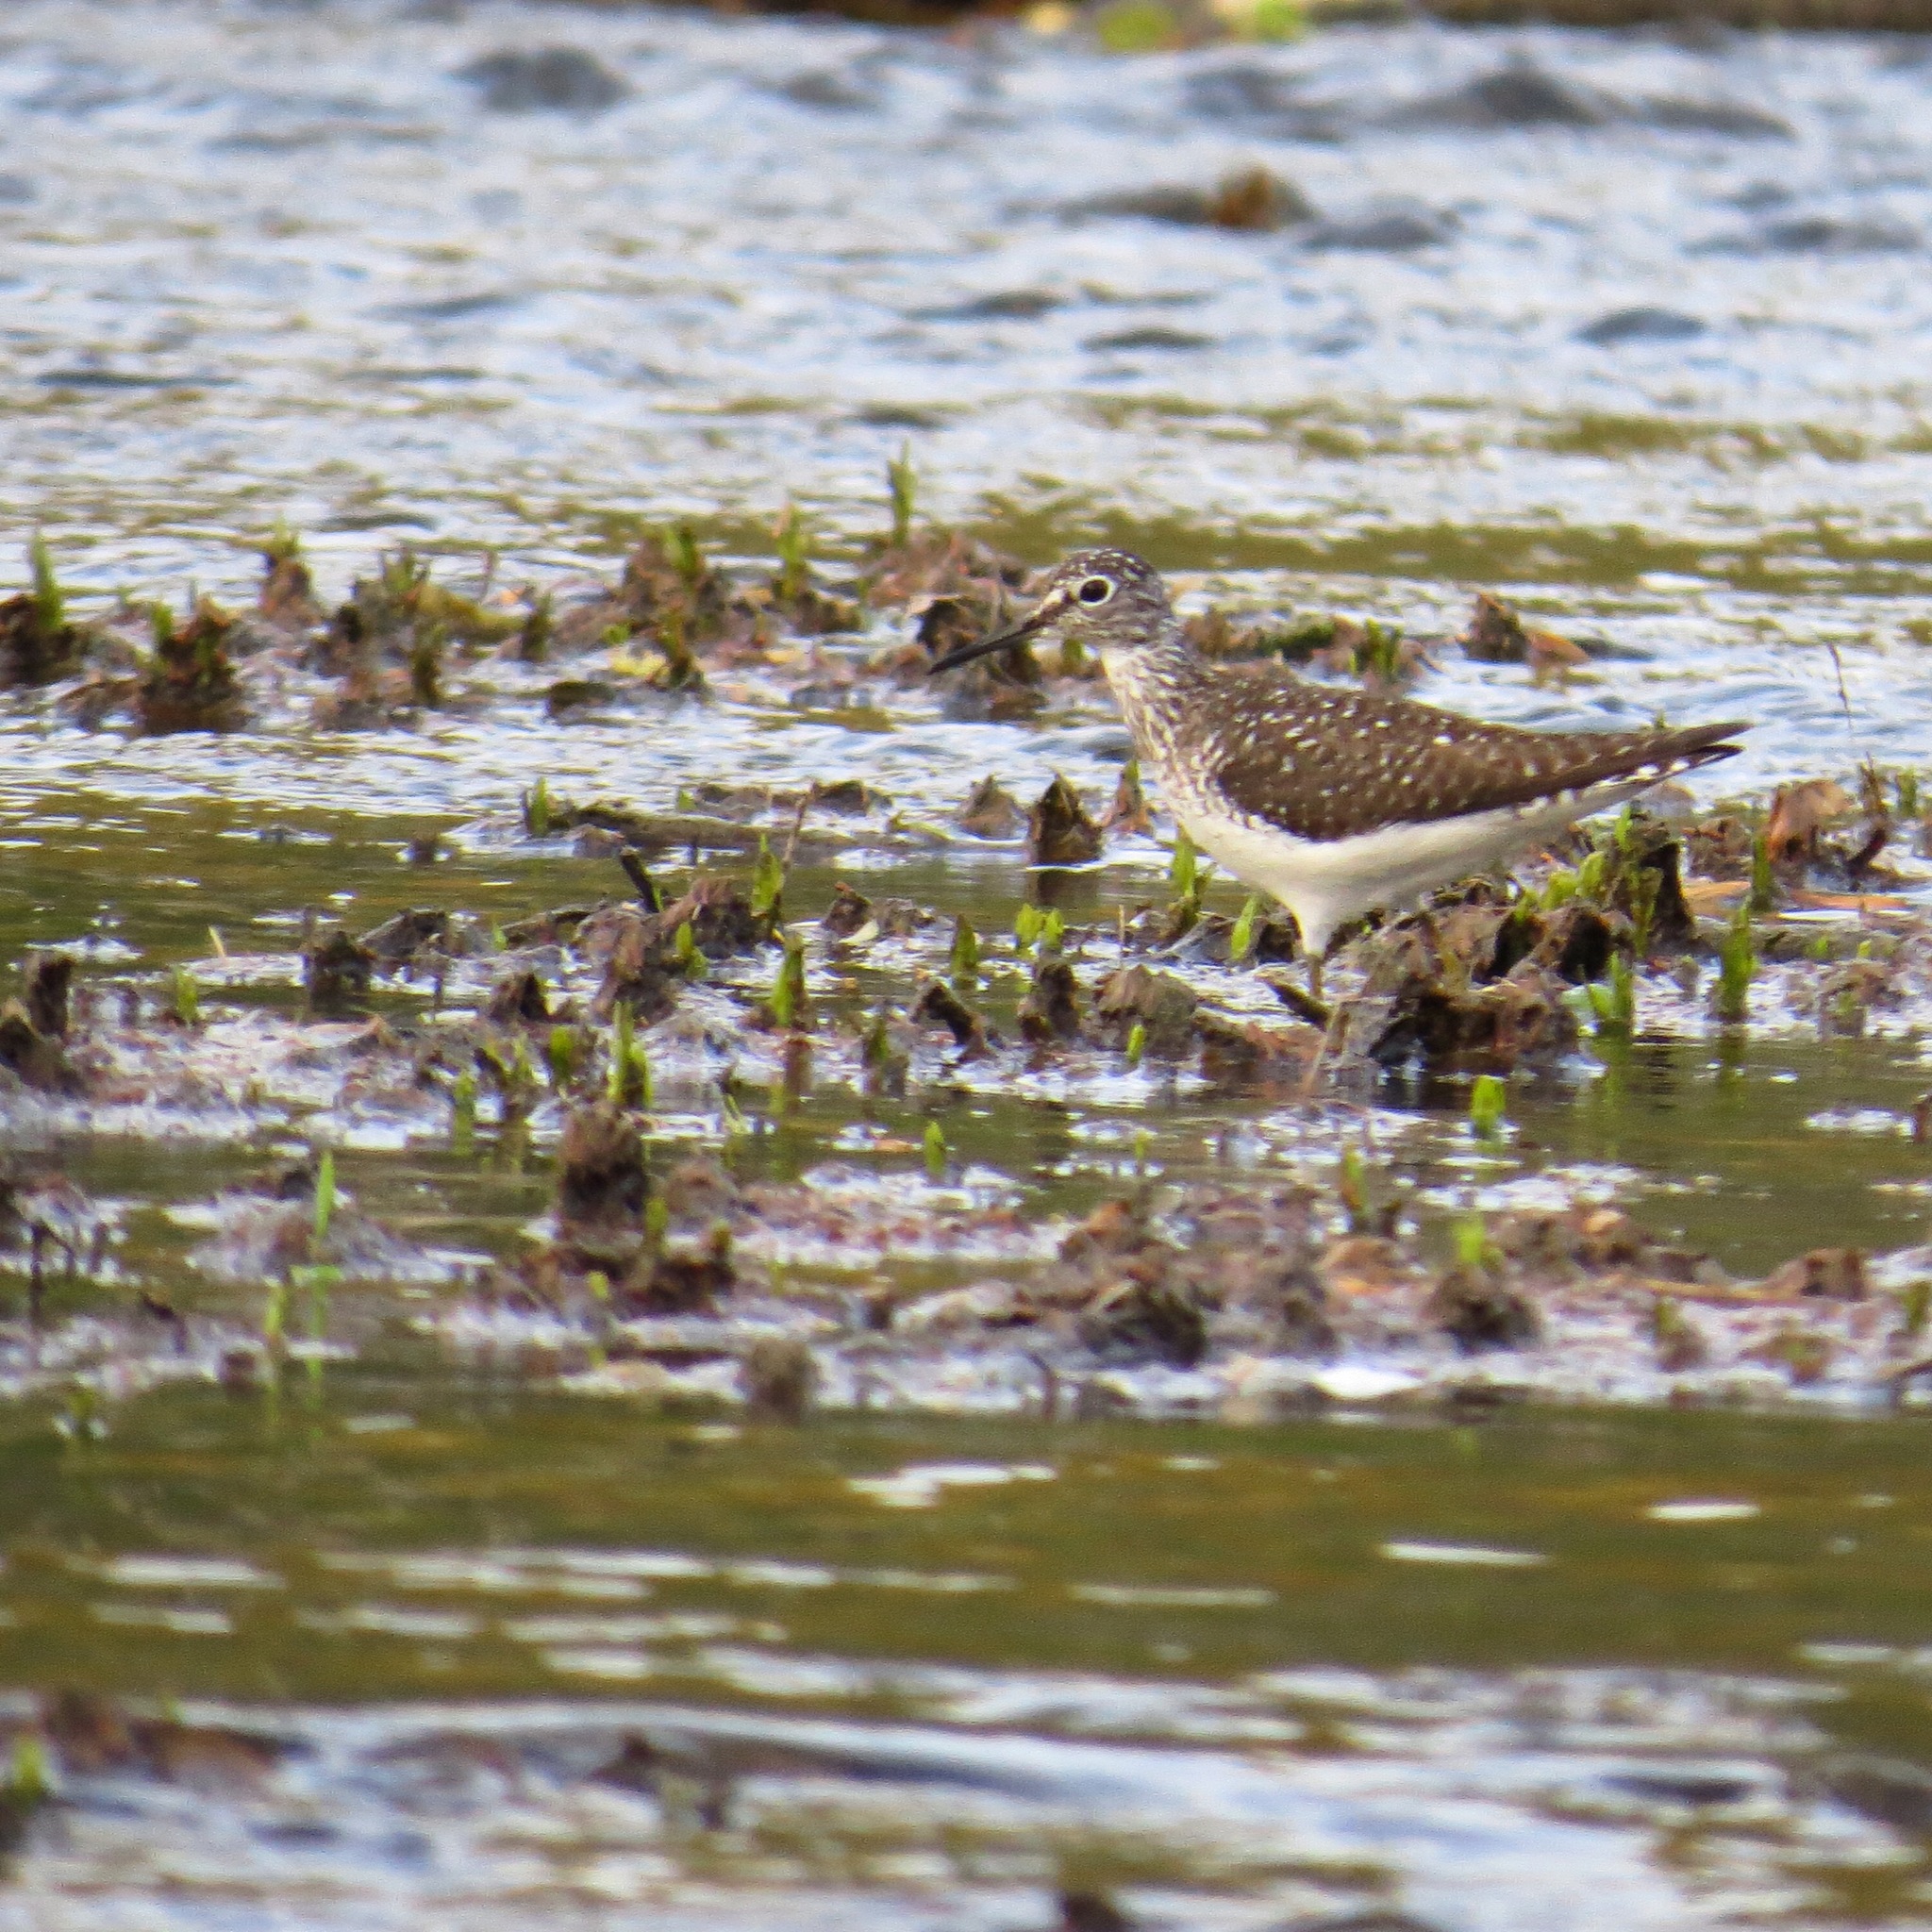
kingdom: Animalia
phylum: Chordata
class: Aves
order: Charadriiformes
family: Scolopacidae
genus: Tringa
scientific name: Tringa solitaria
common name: Solitary sandpiper
